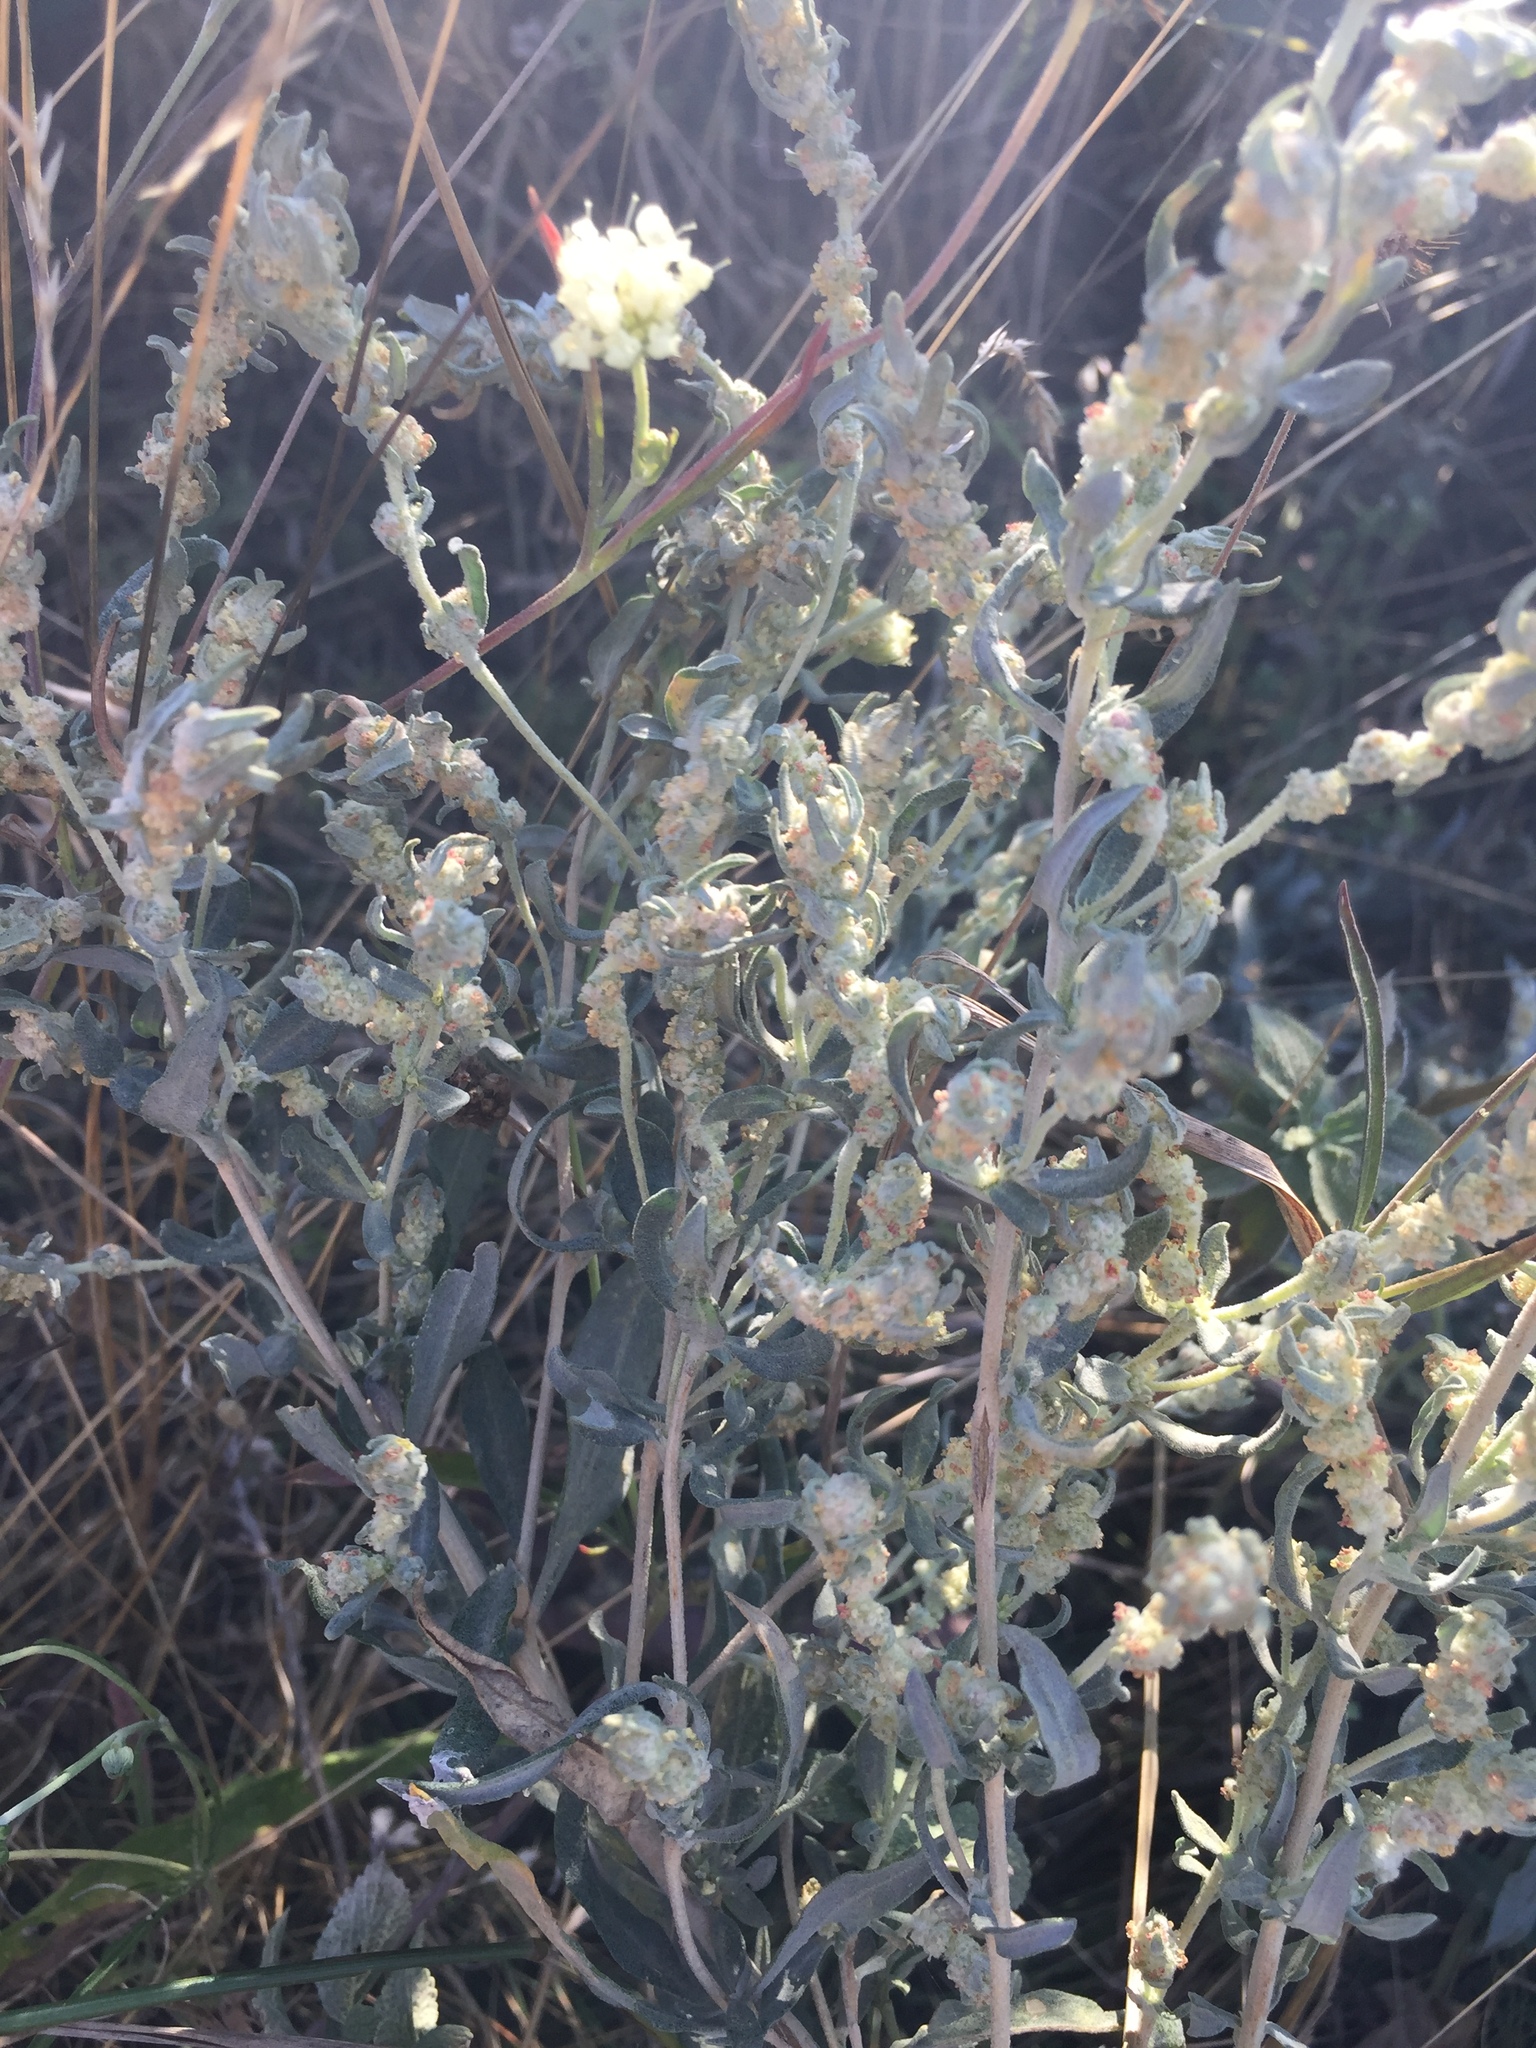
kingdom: Plantae
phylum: Tracheophyta
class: Magnoliopsida
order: Caryophyllales
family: Amaranthaceae
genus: Krascheninnikovia
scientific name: Krascheninnikovia ceratoides
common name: Pamirian winterfat
